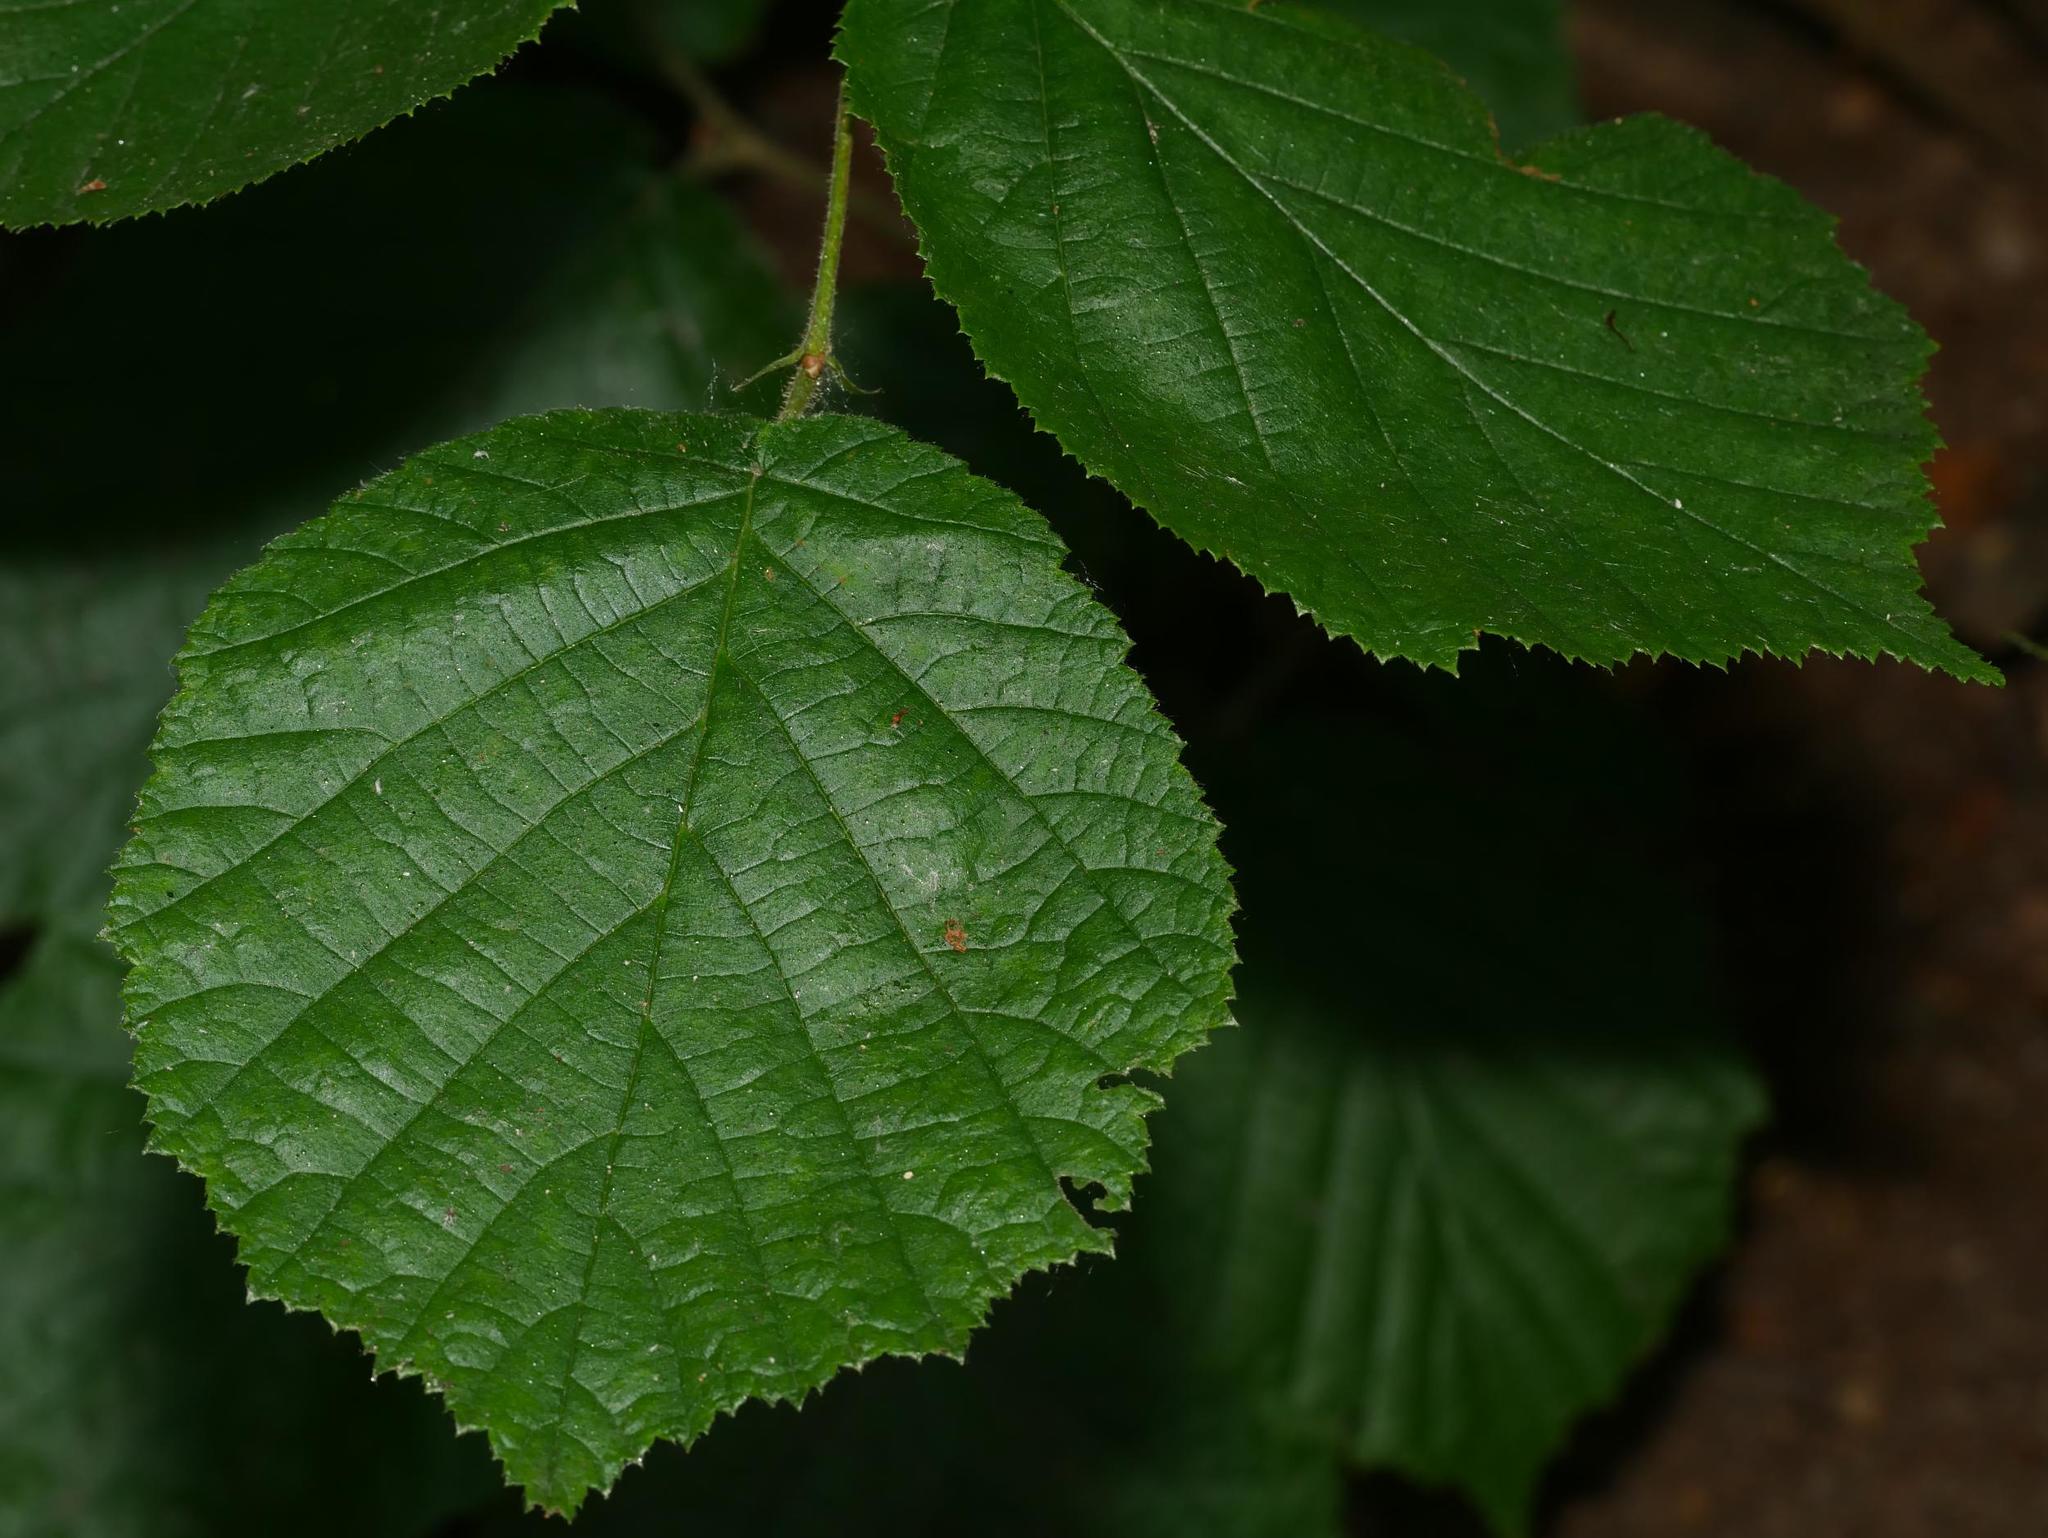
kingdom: Plantae
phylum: Tracheophyta
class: Magnoliopsida
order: Fagales
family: Betulaceae
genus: Corylus
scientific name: Corylus avellana
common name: European hazel
